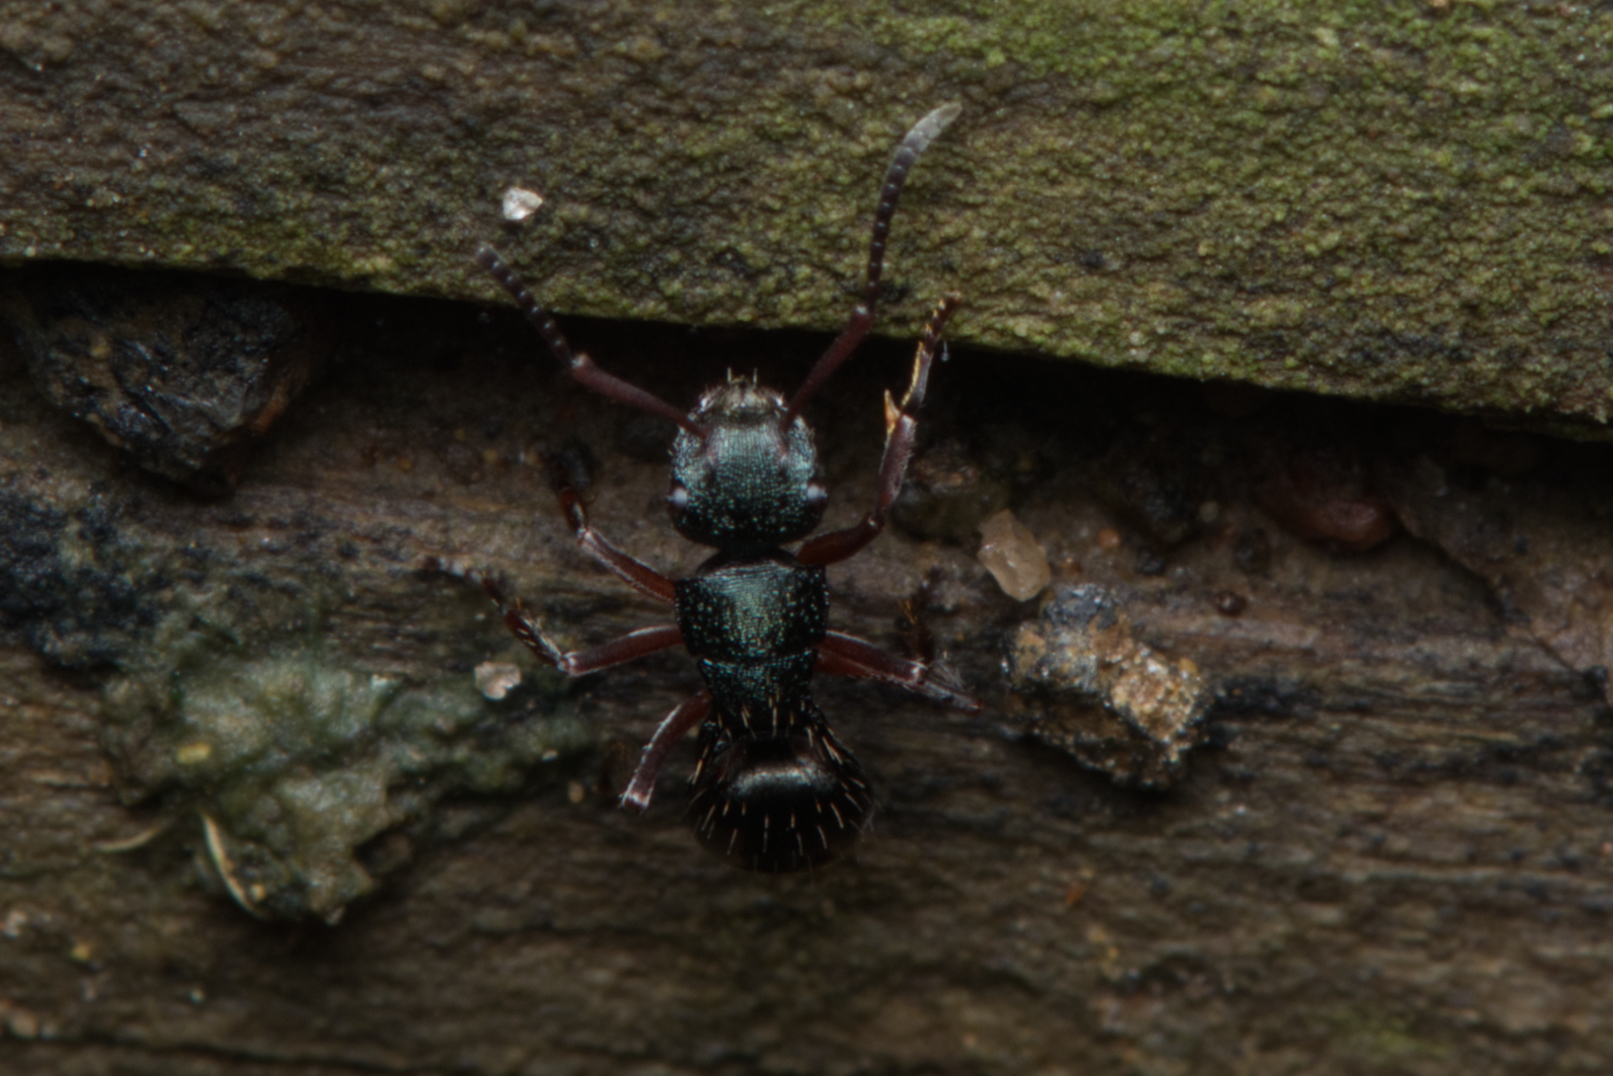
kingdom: Animalia
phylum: Arthropoda
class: Insecta
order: Hymenoptera
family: Formicidae
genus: Polyrhachis
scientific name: Polyrhachis hookeri
